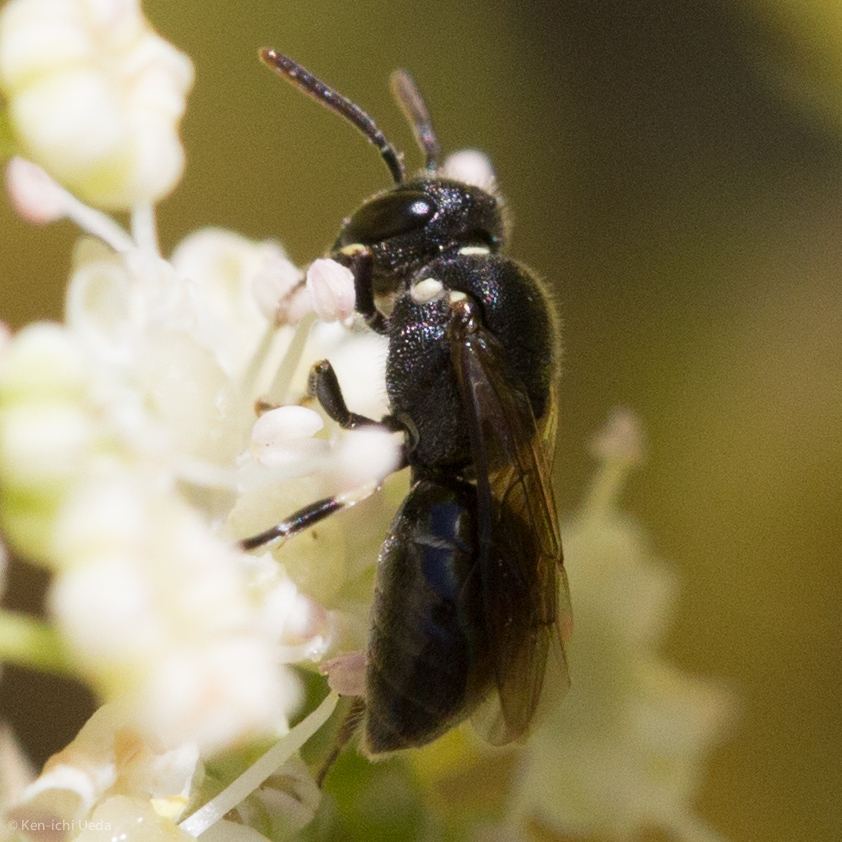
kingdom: Animalia
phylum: Arthropoda
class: Insecta
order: Hymenoptera
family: Colletidae
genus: Hylaeus
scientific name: Hylaeus
